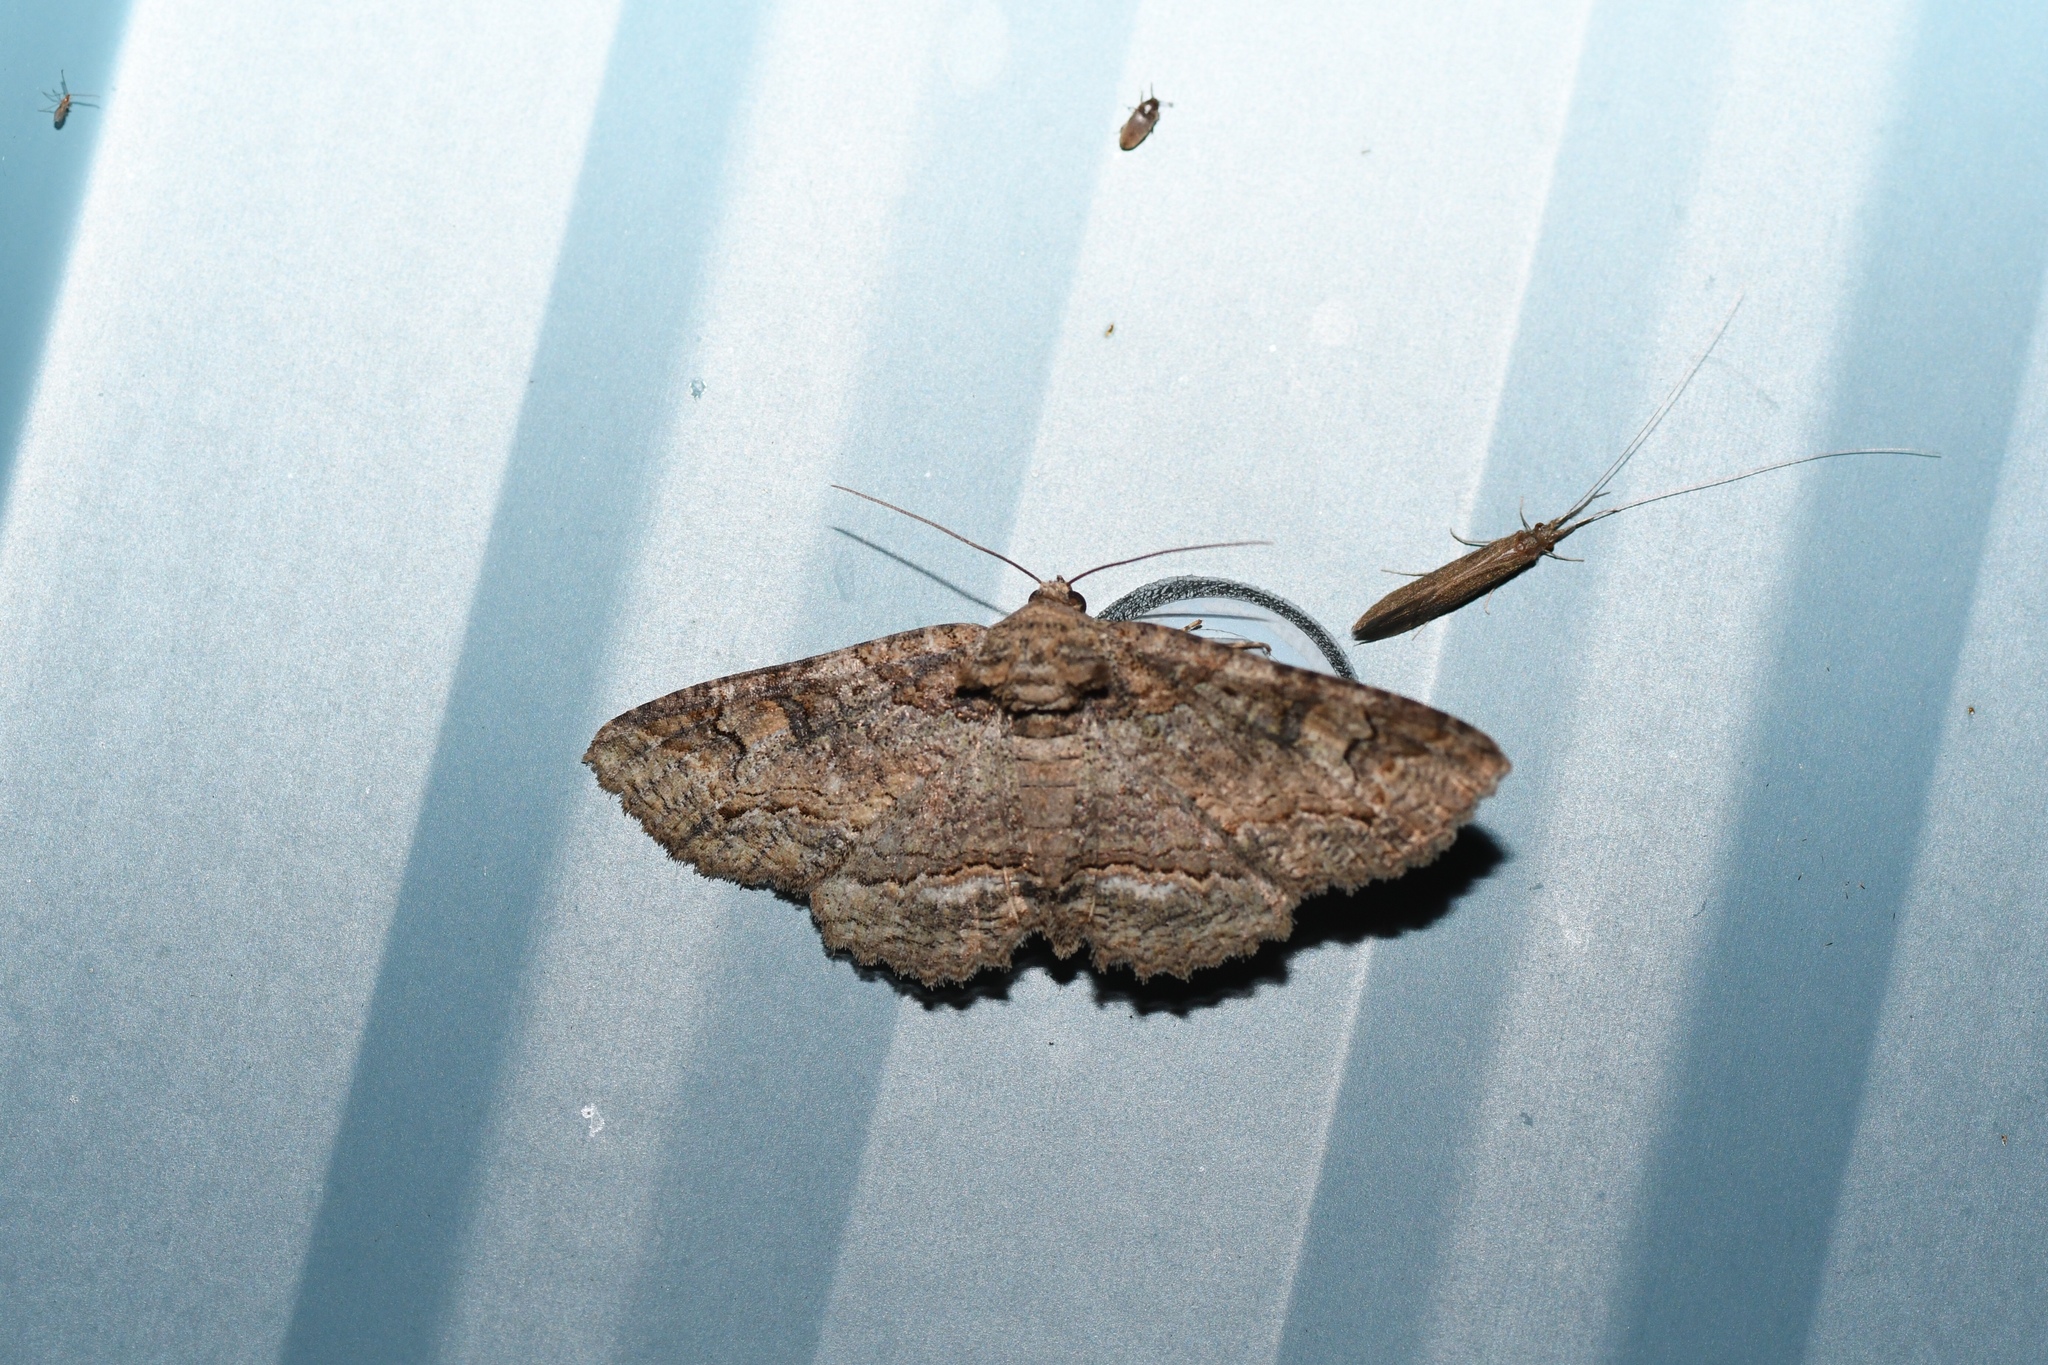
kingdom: Animalia
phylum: Arthropoda
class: Insecta
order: Lepidoptera
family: Erebidae
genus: Zale
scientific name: Zale galbanata
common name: Maple zale
